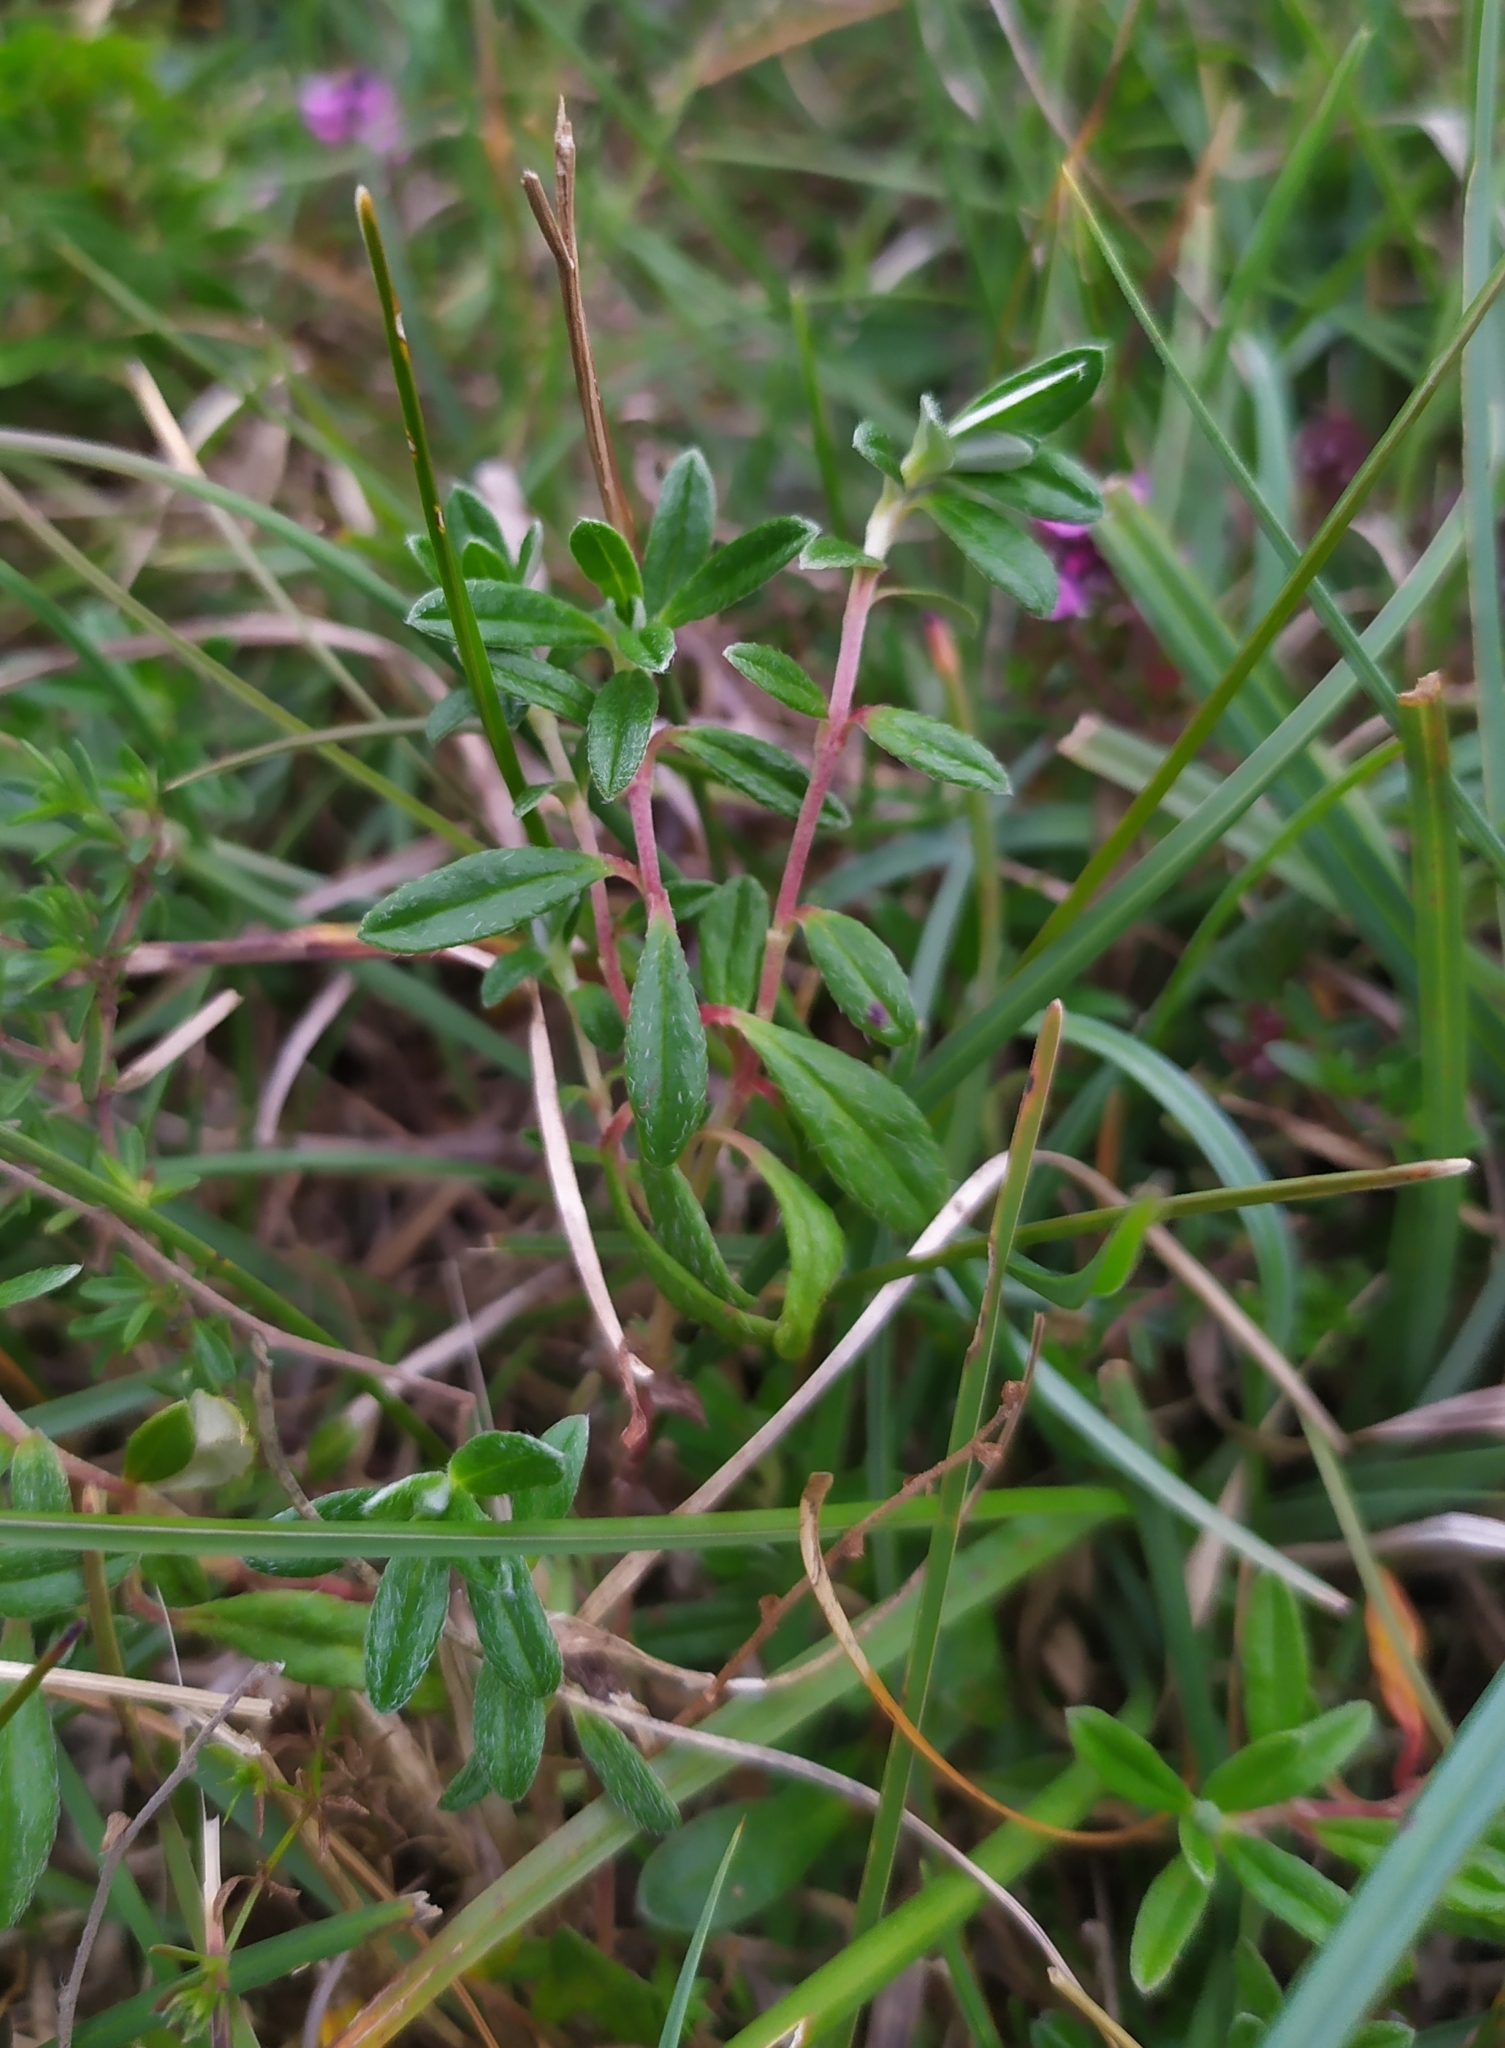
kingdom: Plantae
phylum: Tracheophyta
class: Magnoliopsida
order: Malvales
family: Cistaceae
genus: Helianthemum
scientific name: Helianthemum oelandicum
